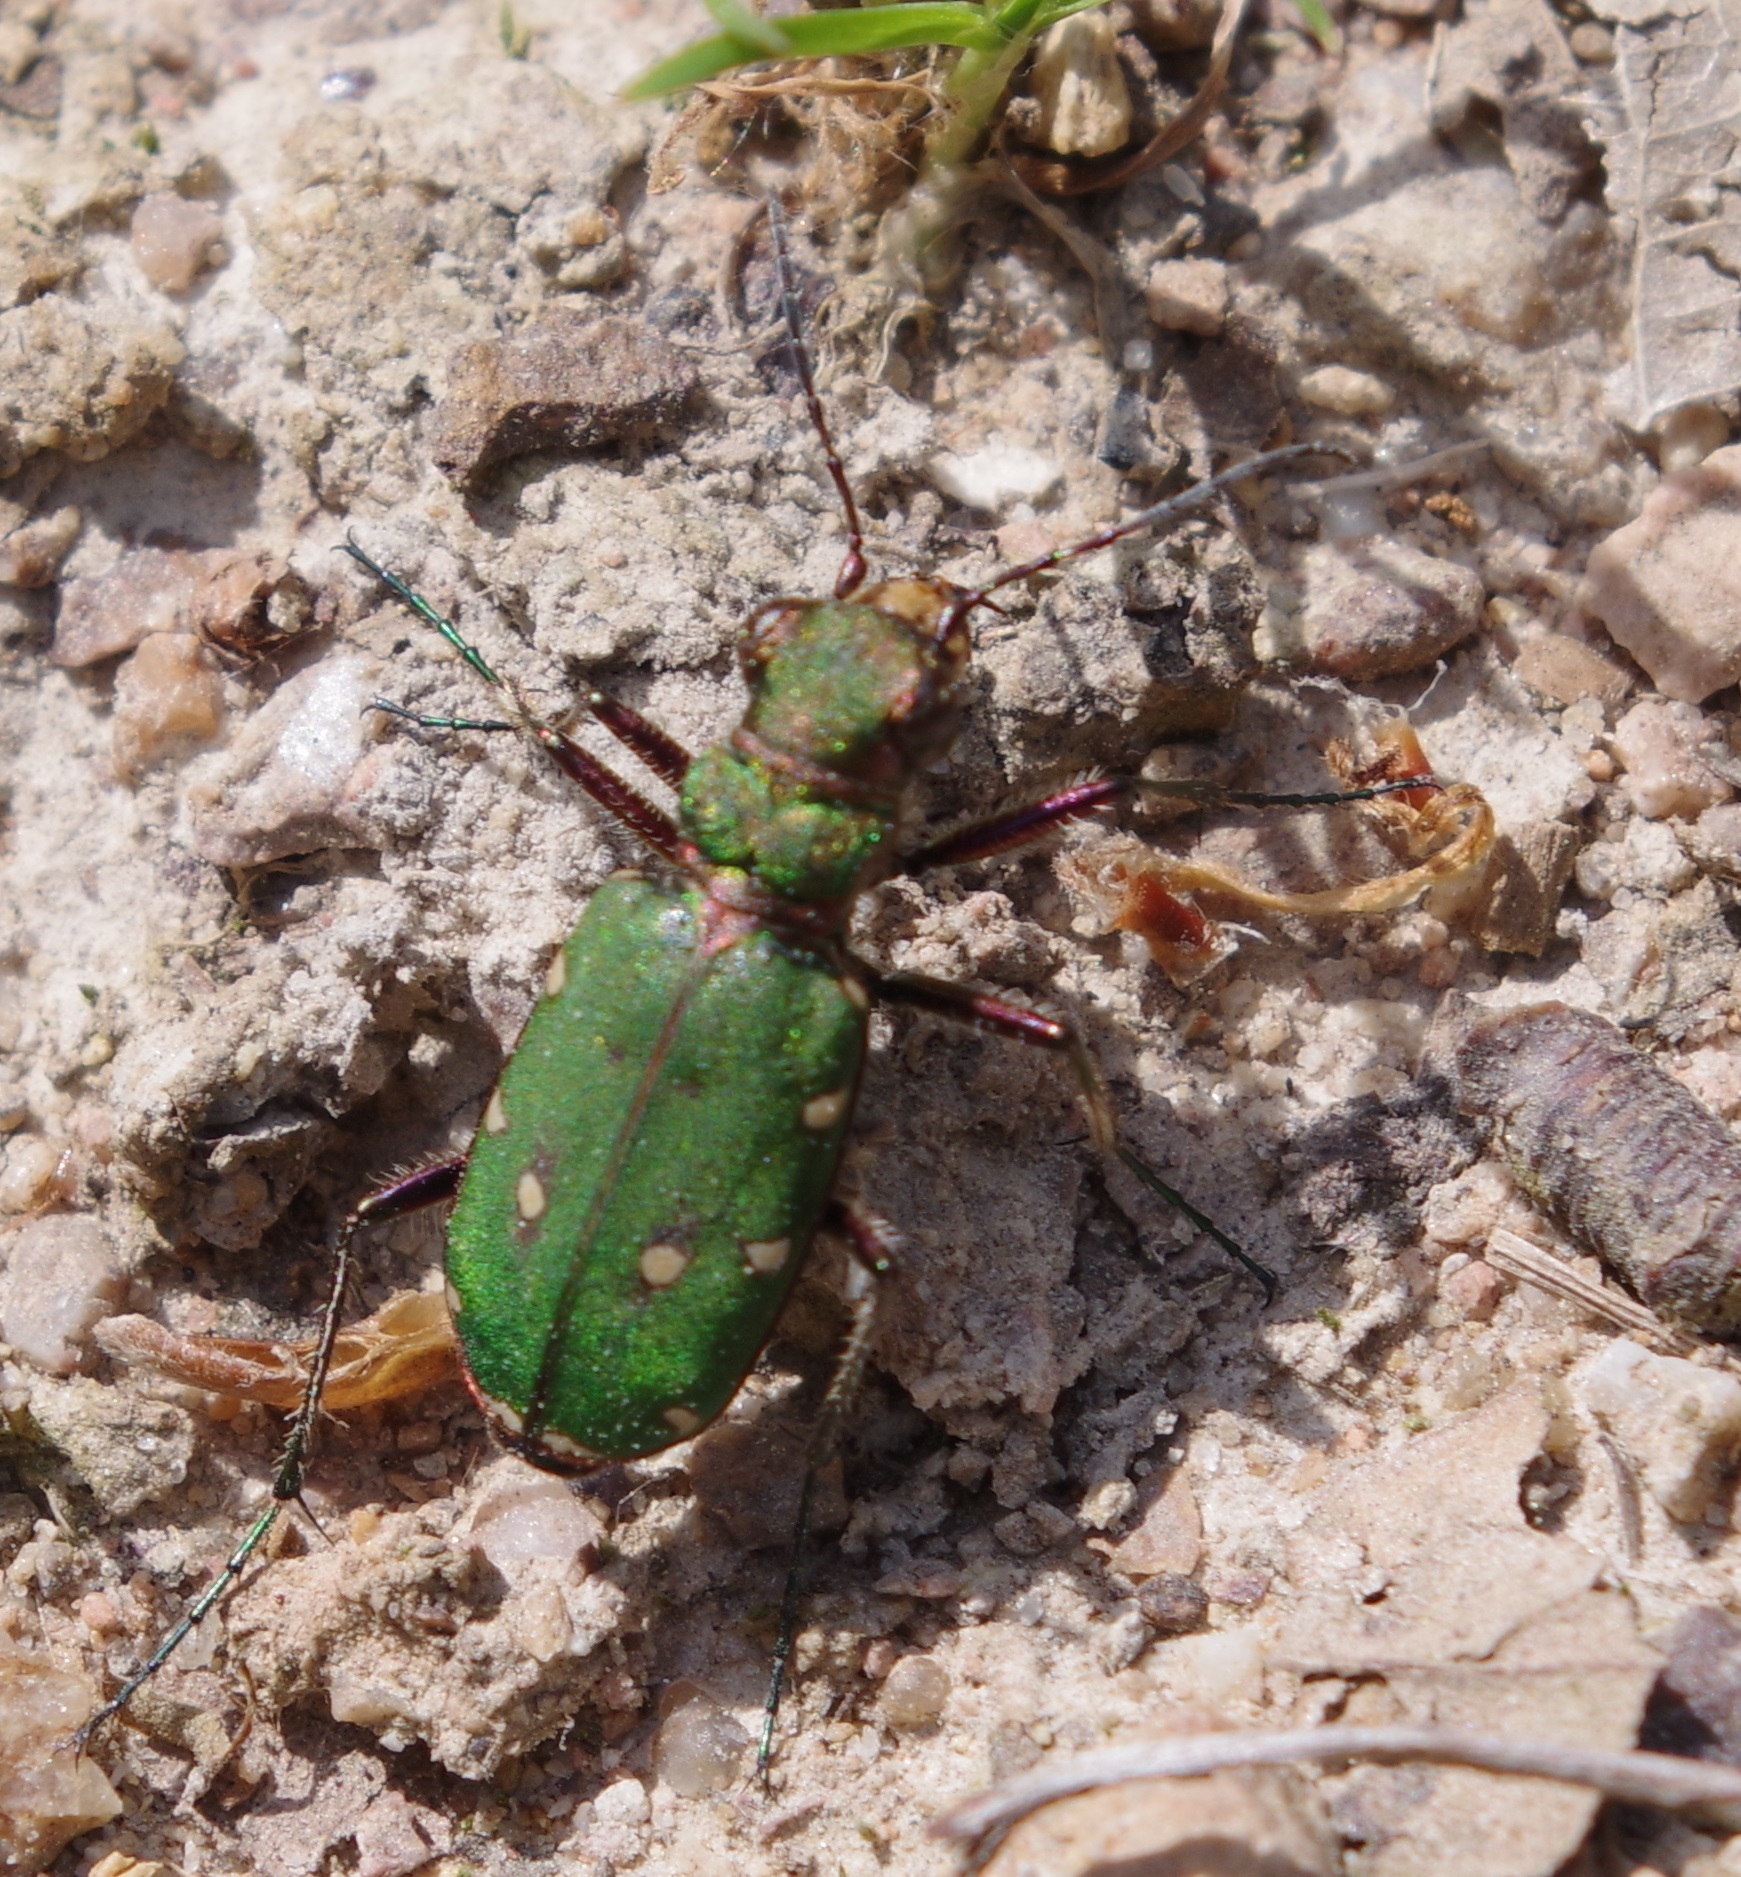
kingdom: Animalia
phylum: Arthropoda
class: Insecta
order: Coleoptera
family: Carabidae
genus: Cicindela
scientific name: Cicindela campestris
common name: Common tiger beetle
